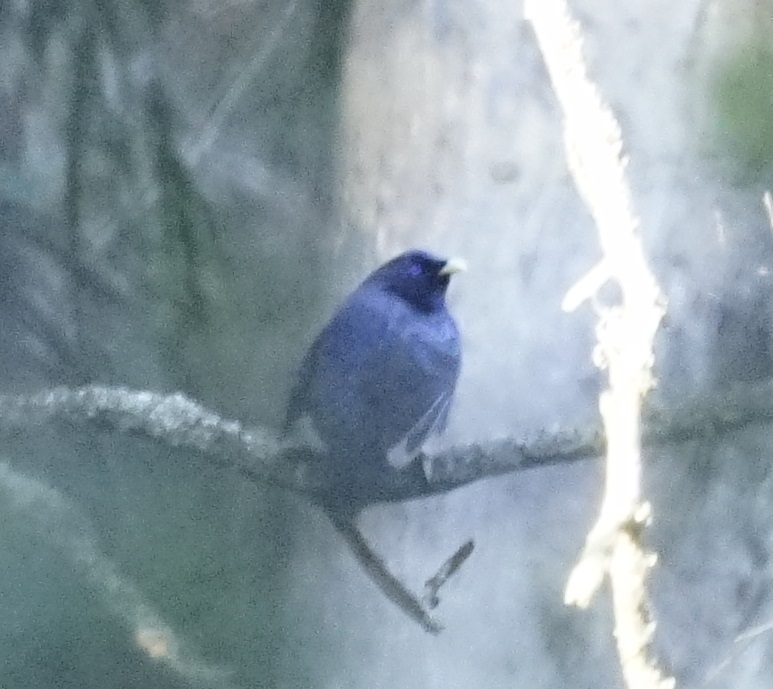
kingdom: Animalia
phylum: Chordata
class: Aves
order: Passeriformes
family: Ptilonorhynchidae
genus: Ptilonorhynchus
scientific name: Ptilonorhynchus violaceus
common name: Satin bowerbird
